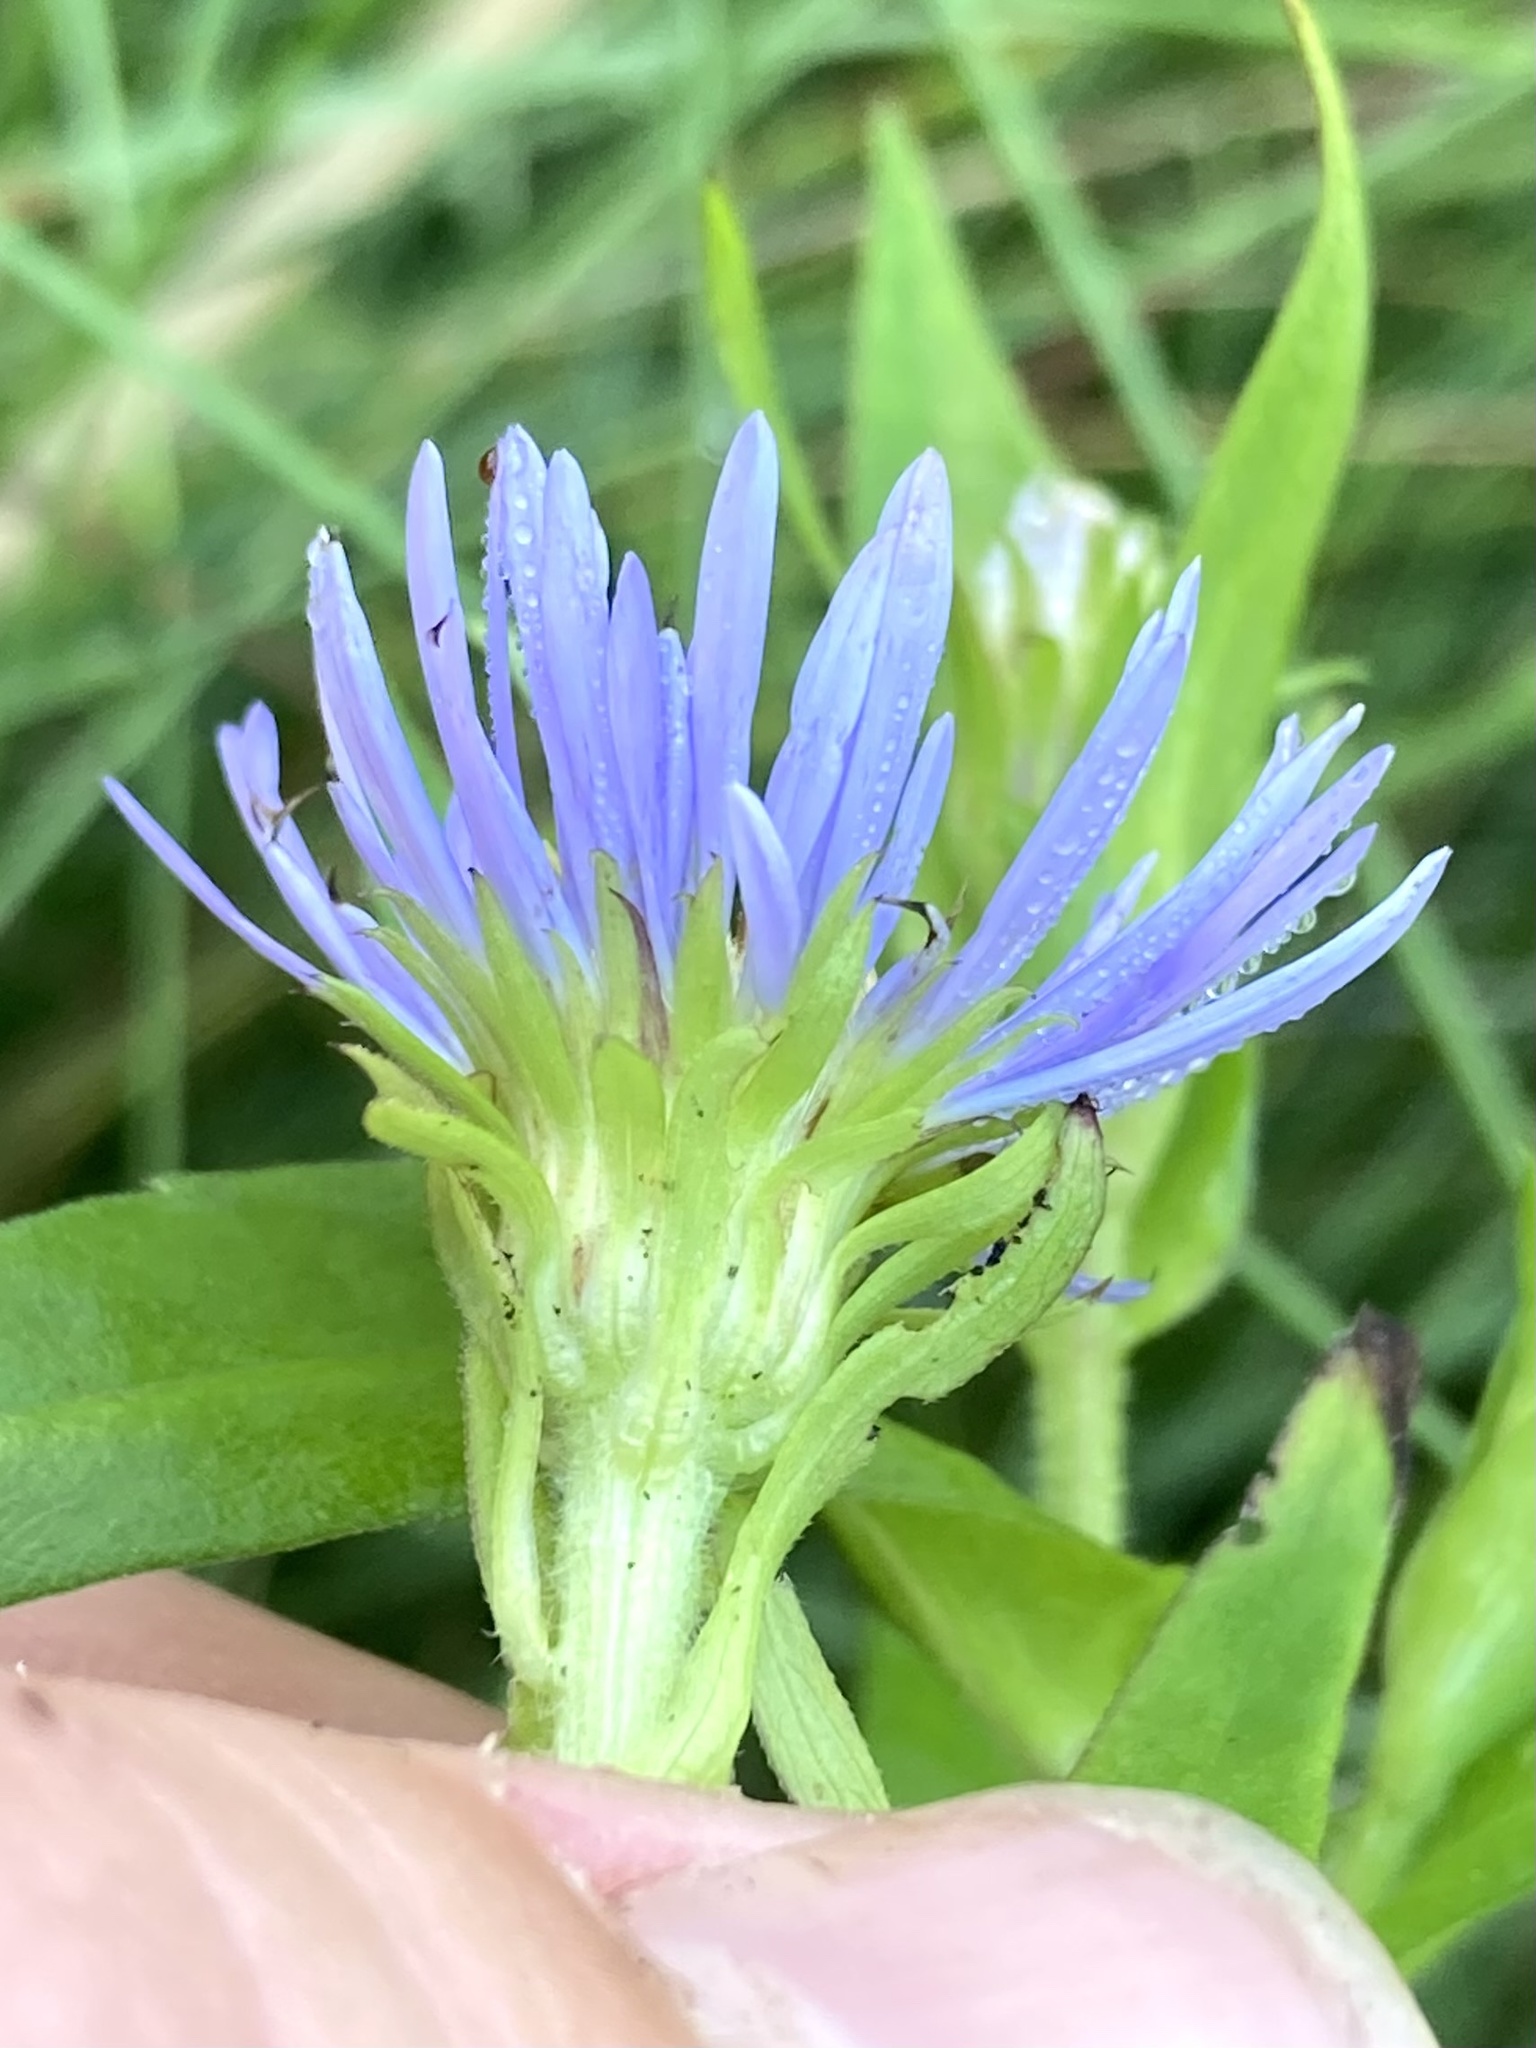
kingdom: Plantae
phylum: Tracheophyta
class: Magnoliopsida
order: Asterales
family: Asteraceae
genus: Symphyotrichum
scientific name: Symphyotrichum puniceum
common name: Bog aster
